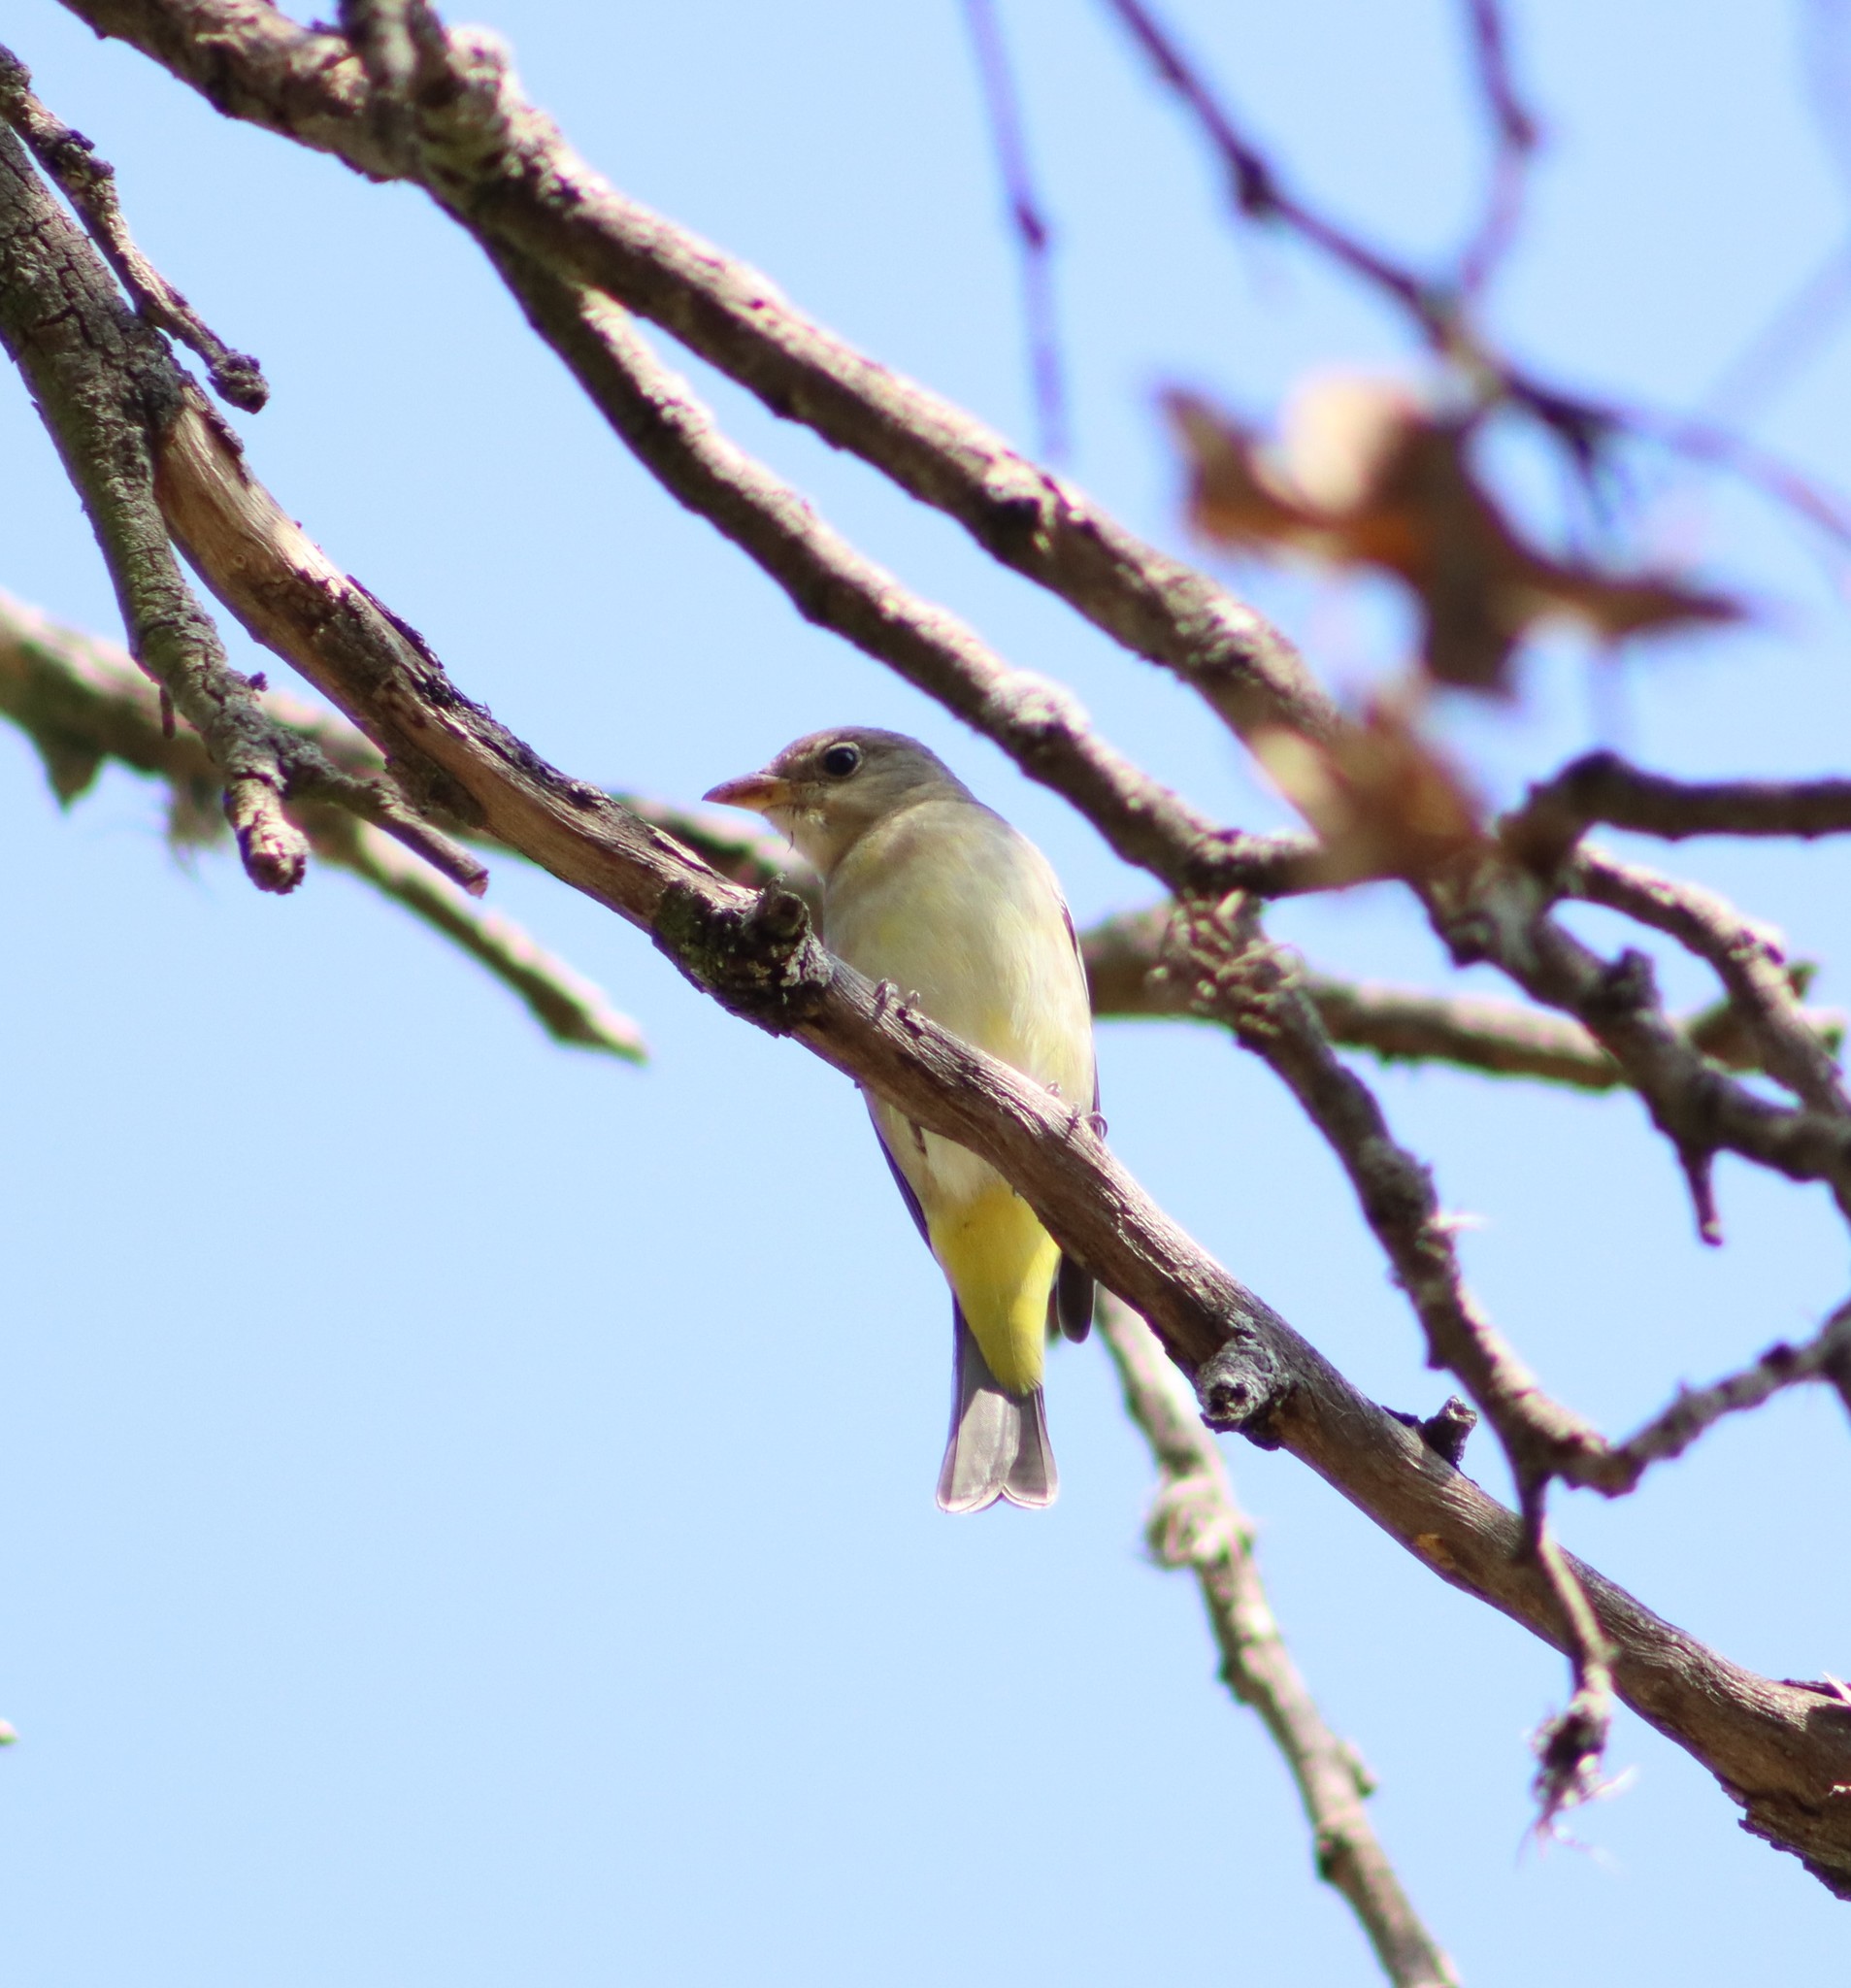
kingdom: Animalia
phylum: Chordata
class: Aves
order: Passeriformes
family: Cardinalidae
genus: Piranga
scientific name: Piranga ludoviciana
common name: Western tanager
